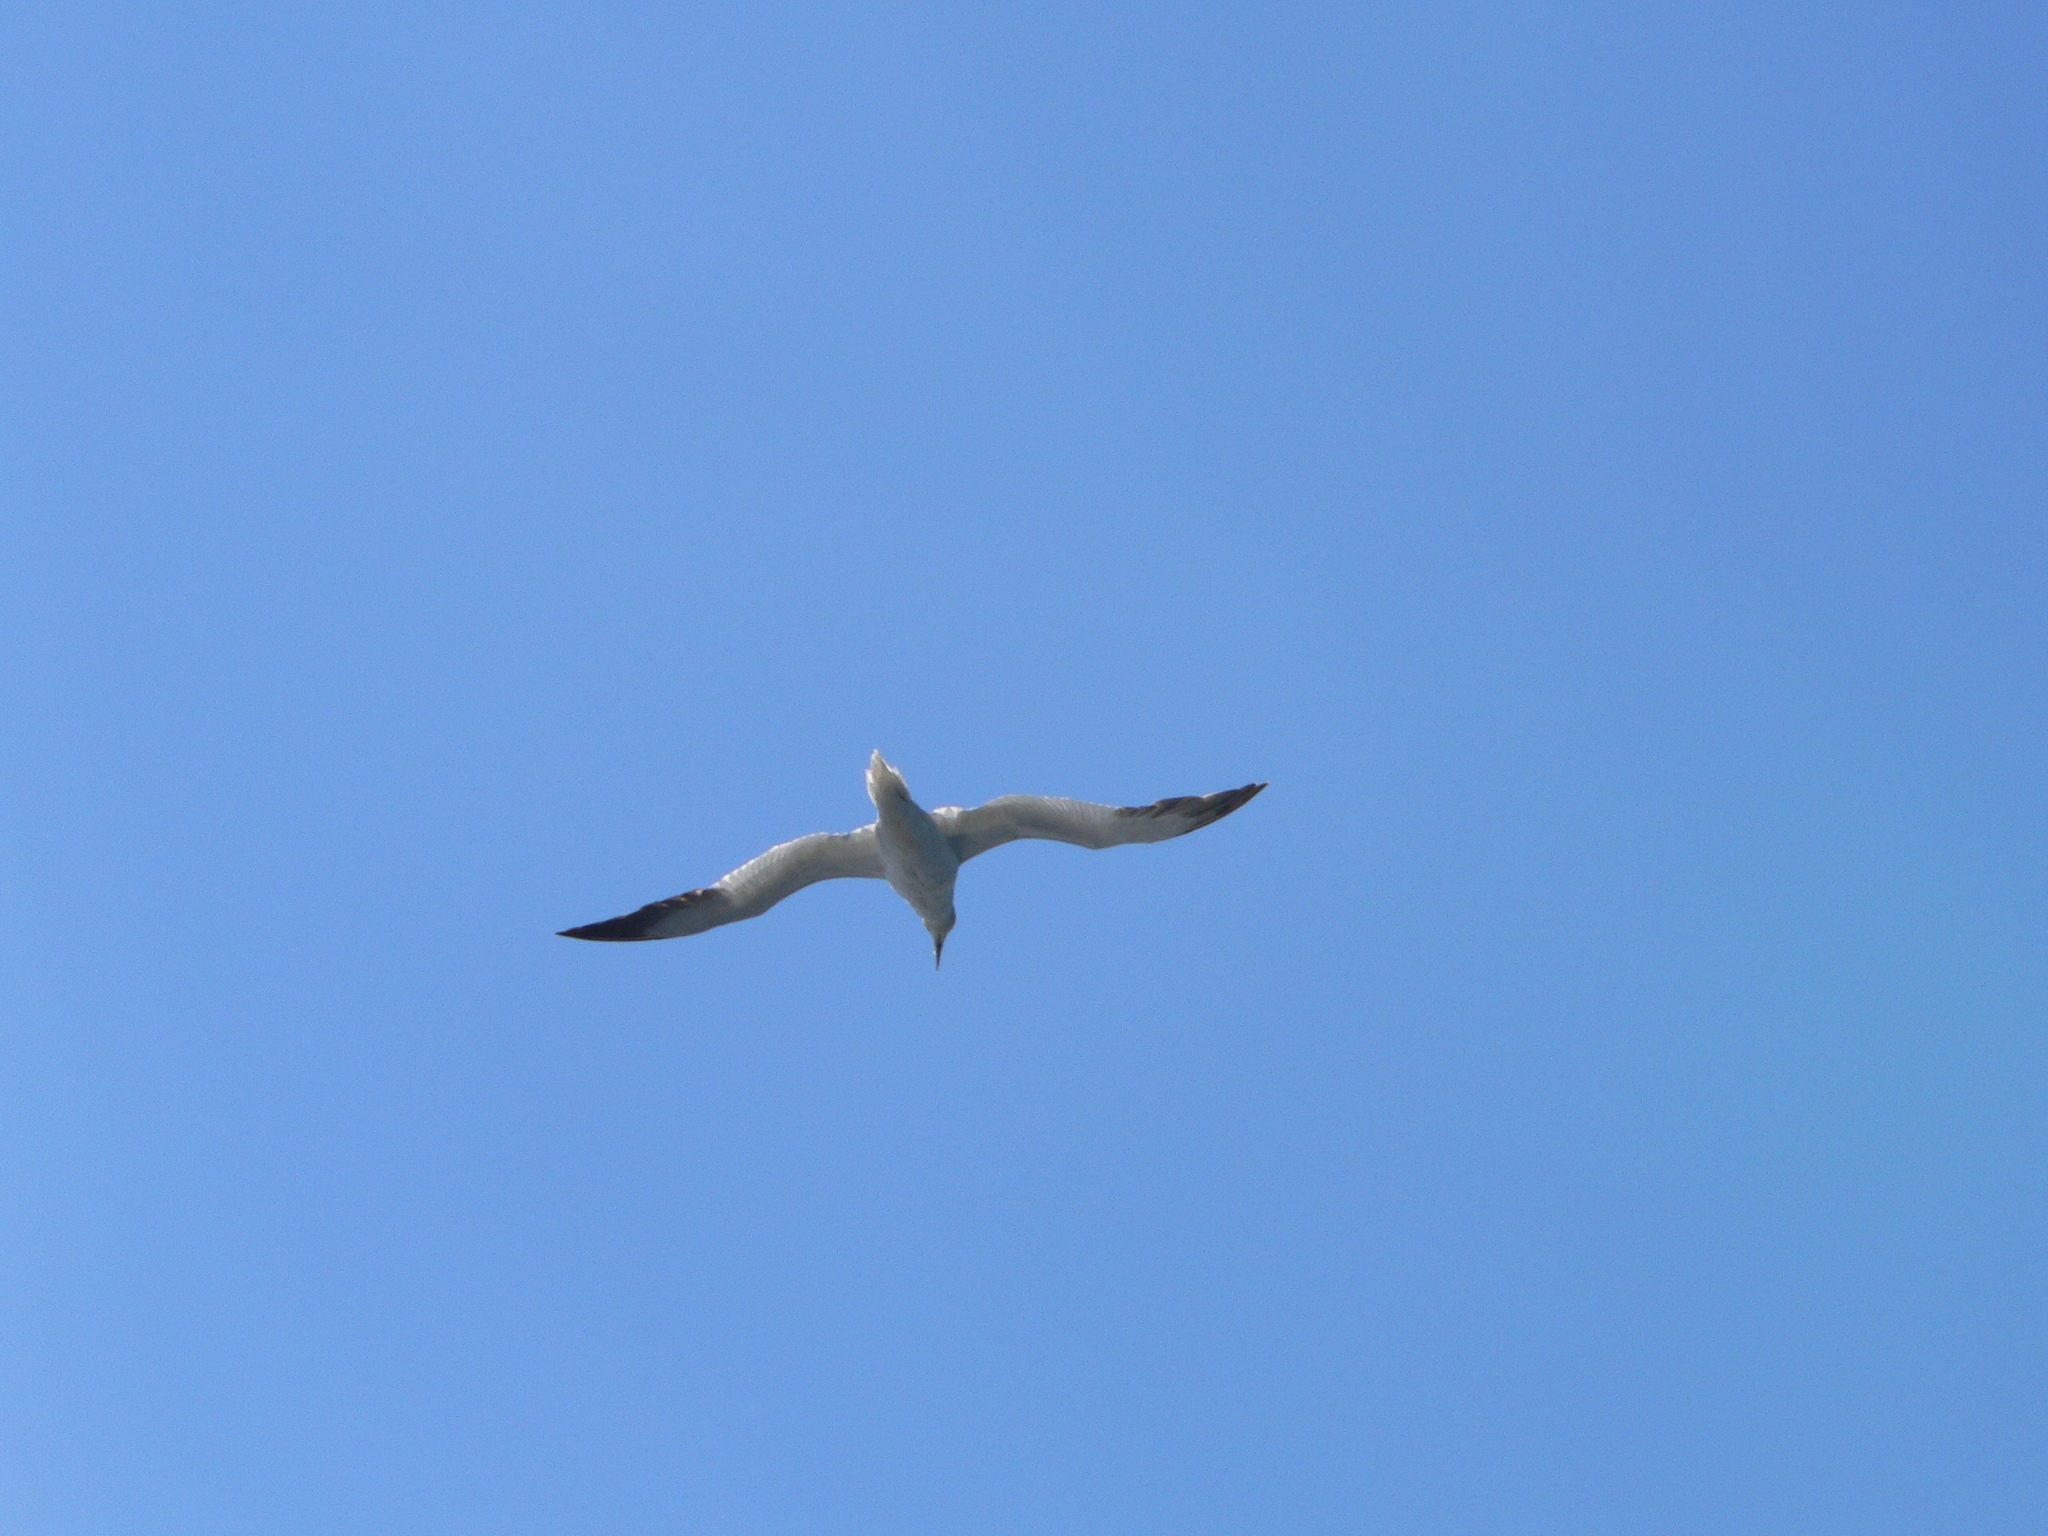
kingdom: Animalia
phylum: Chordata
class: Aves
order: Suliformes
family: Sulidae
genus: Morus
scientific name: Morus bassanus
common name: Northern gannet
